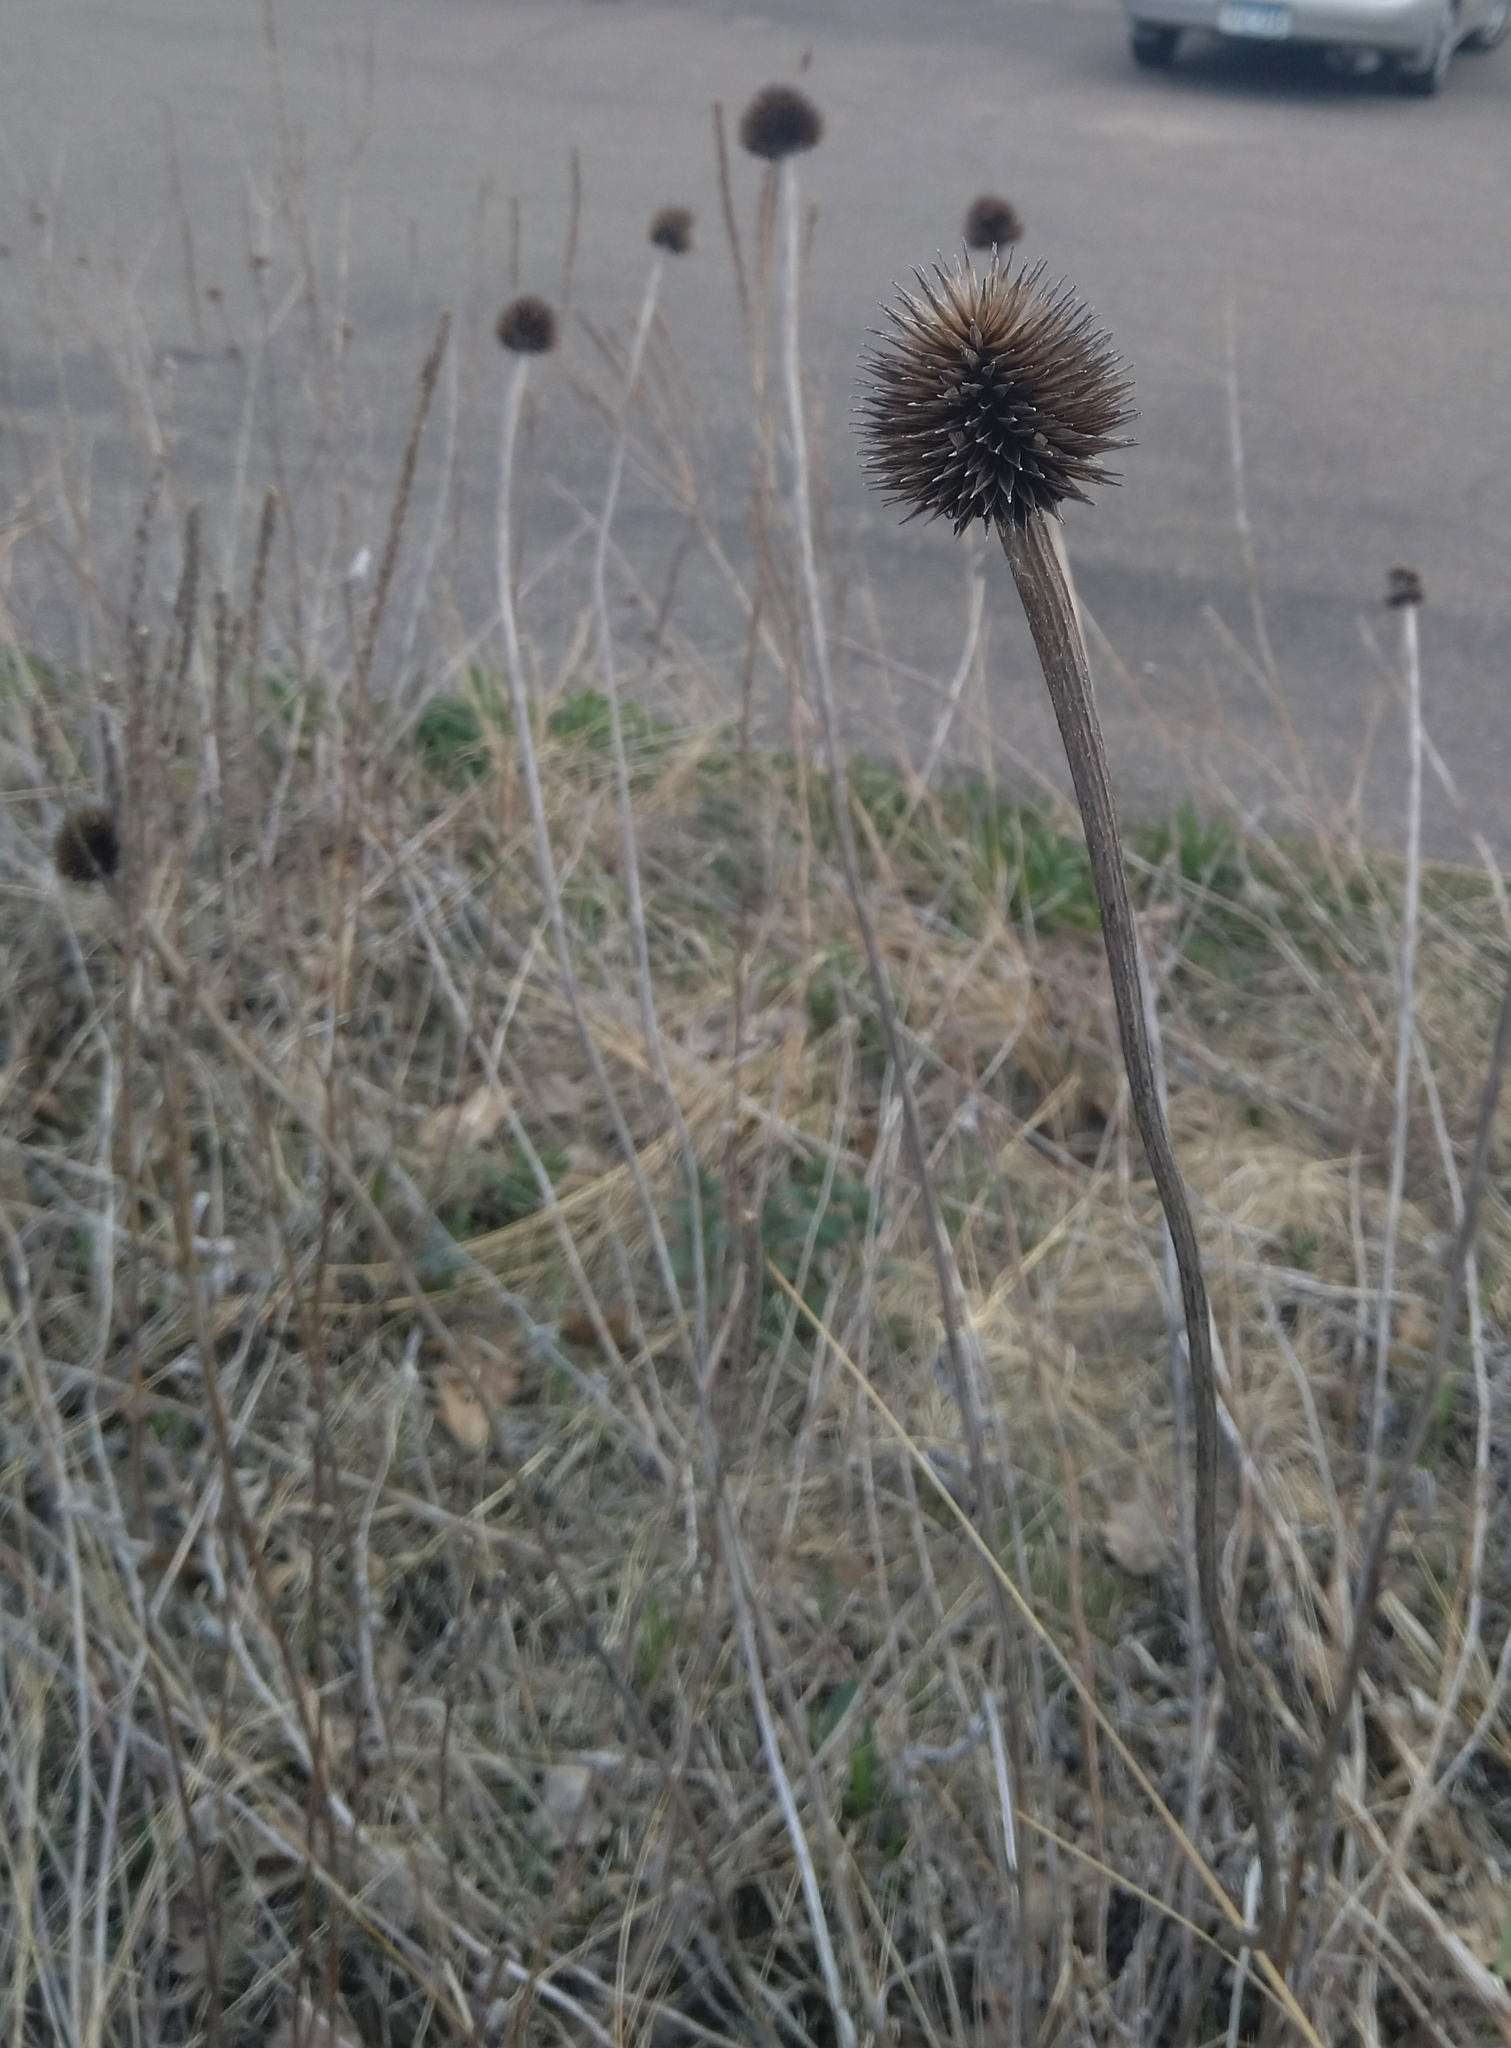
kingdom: Plantae
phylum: Tracheophyta
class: Magnoliopsida
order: Asterales
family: Asteraceae
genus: Echinacea
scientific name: Echinacea purpurea
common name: Broad-leaved purple coneflower
